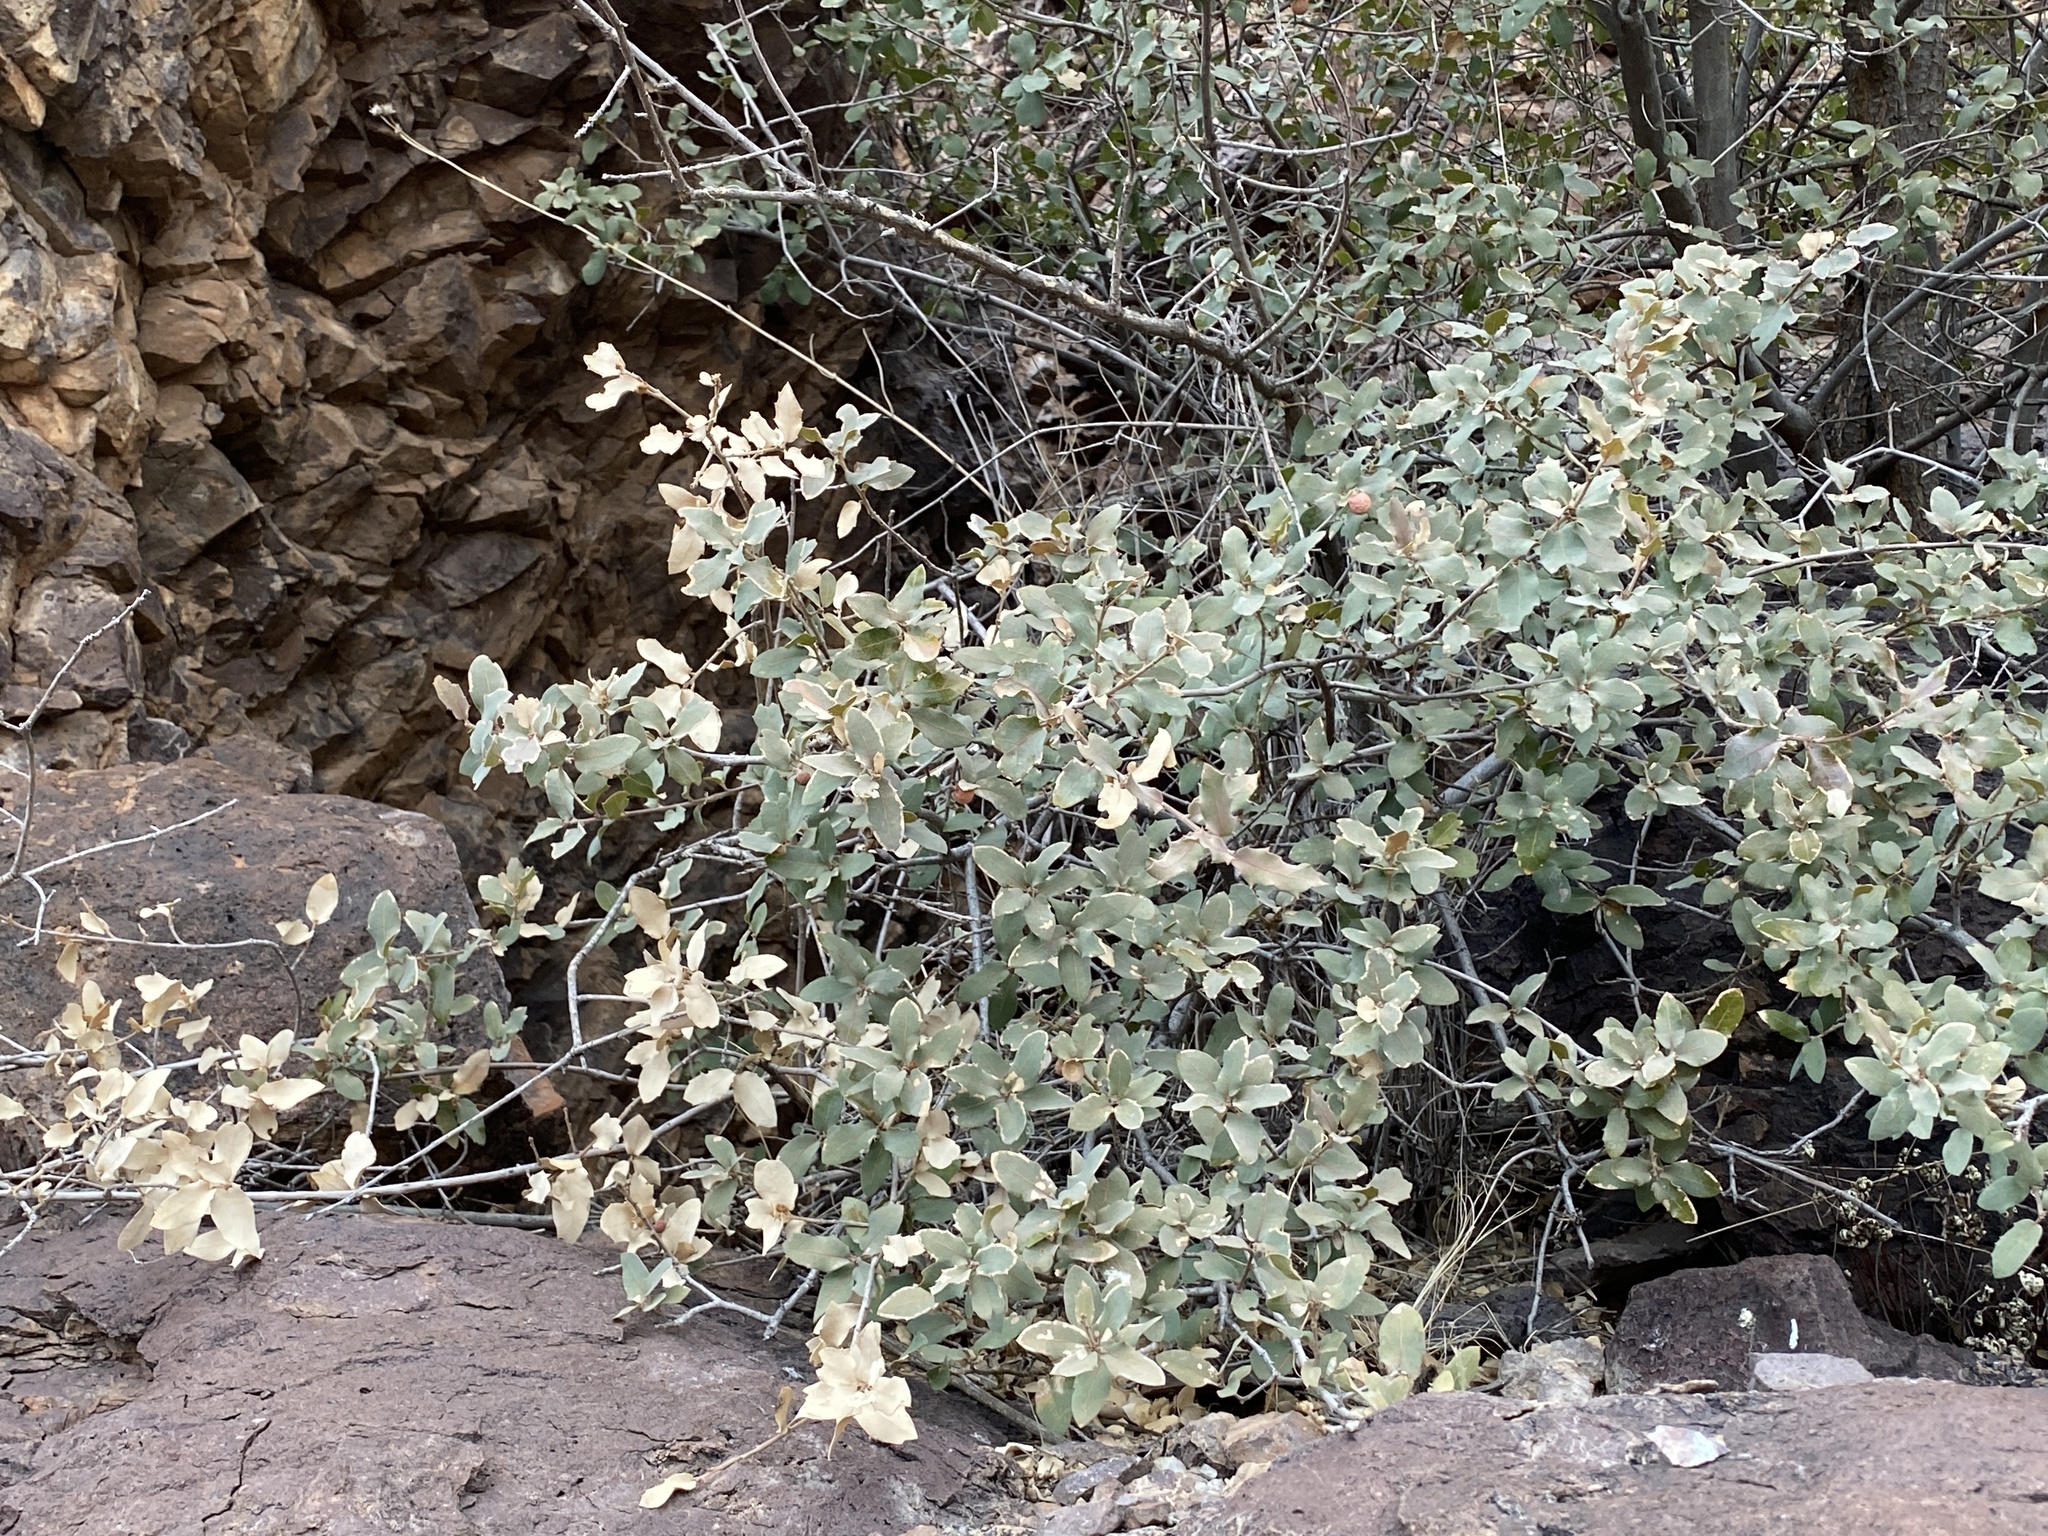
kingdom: Plantae
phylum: Tracheophyta
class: Magnoliopsida
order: Fagales
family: Fagaceae
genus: Quercus
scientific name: Quercus turbinella
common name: Sonoran scrub oak
